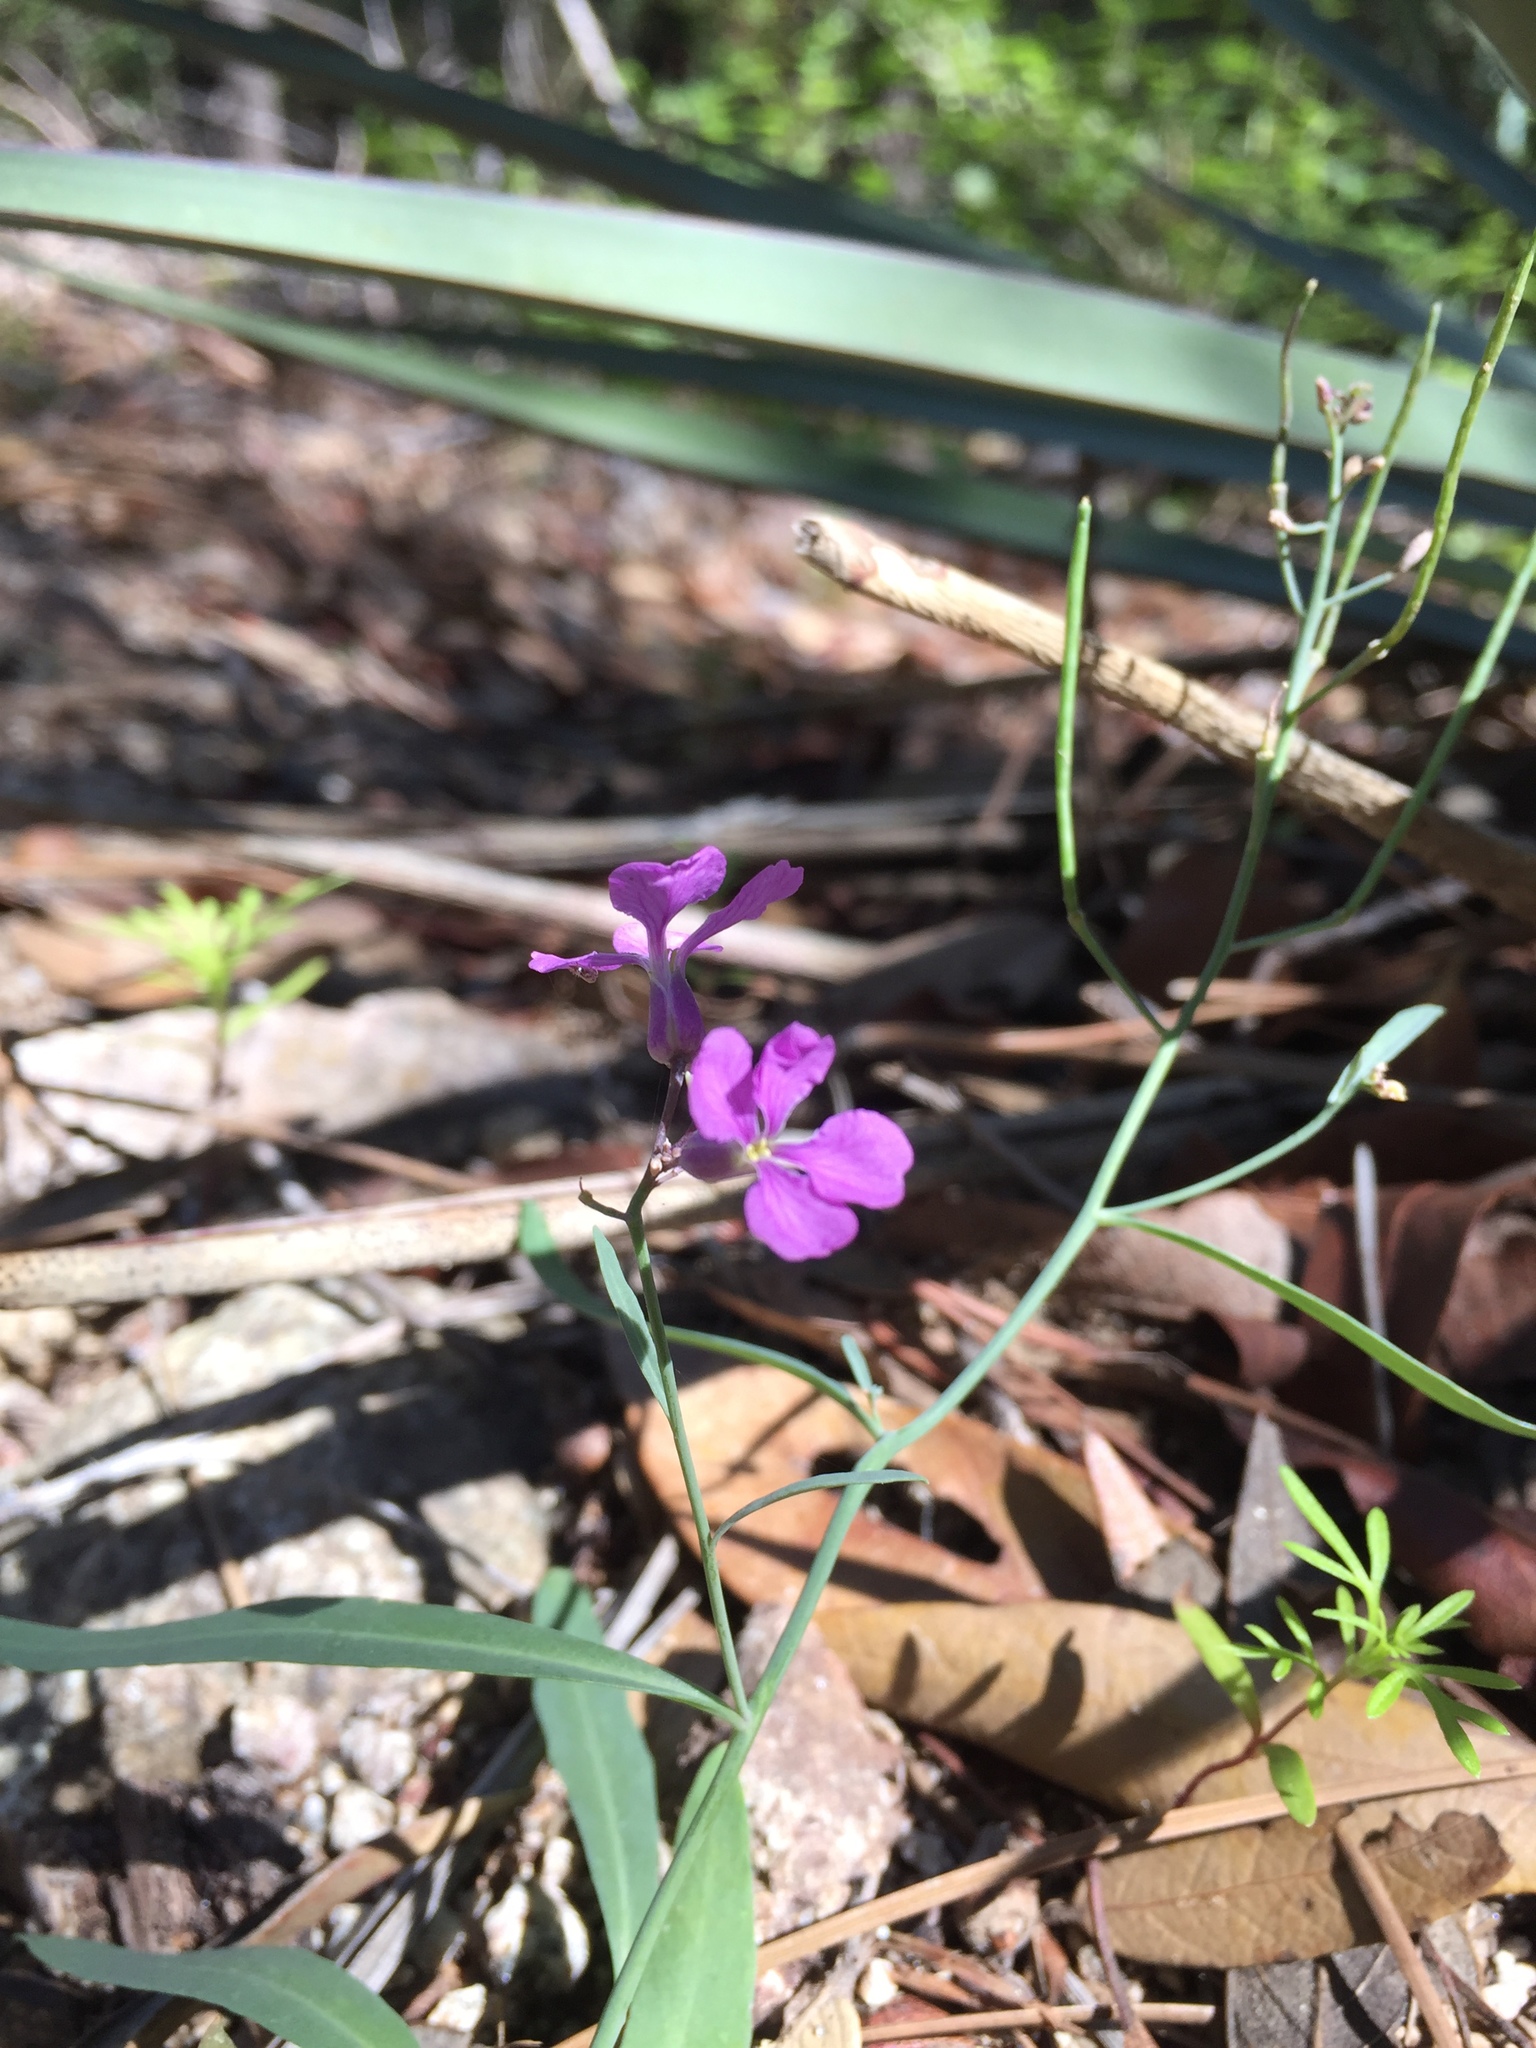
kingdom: Plantae
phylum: Tracheophyta
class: Magnoliopsida
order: Brassicales
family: Brassicaceae
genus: Hesperidanthus
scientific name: Hesperidanthus linearifolius
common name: Slim-leaf plains mustard
